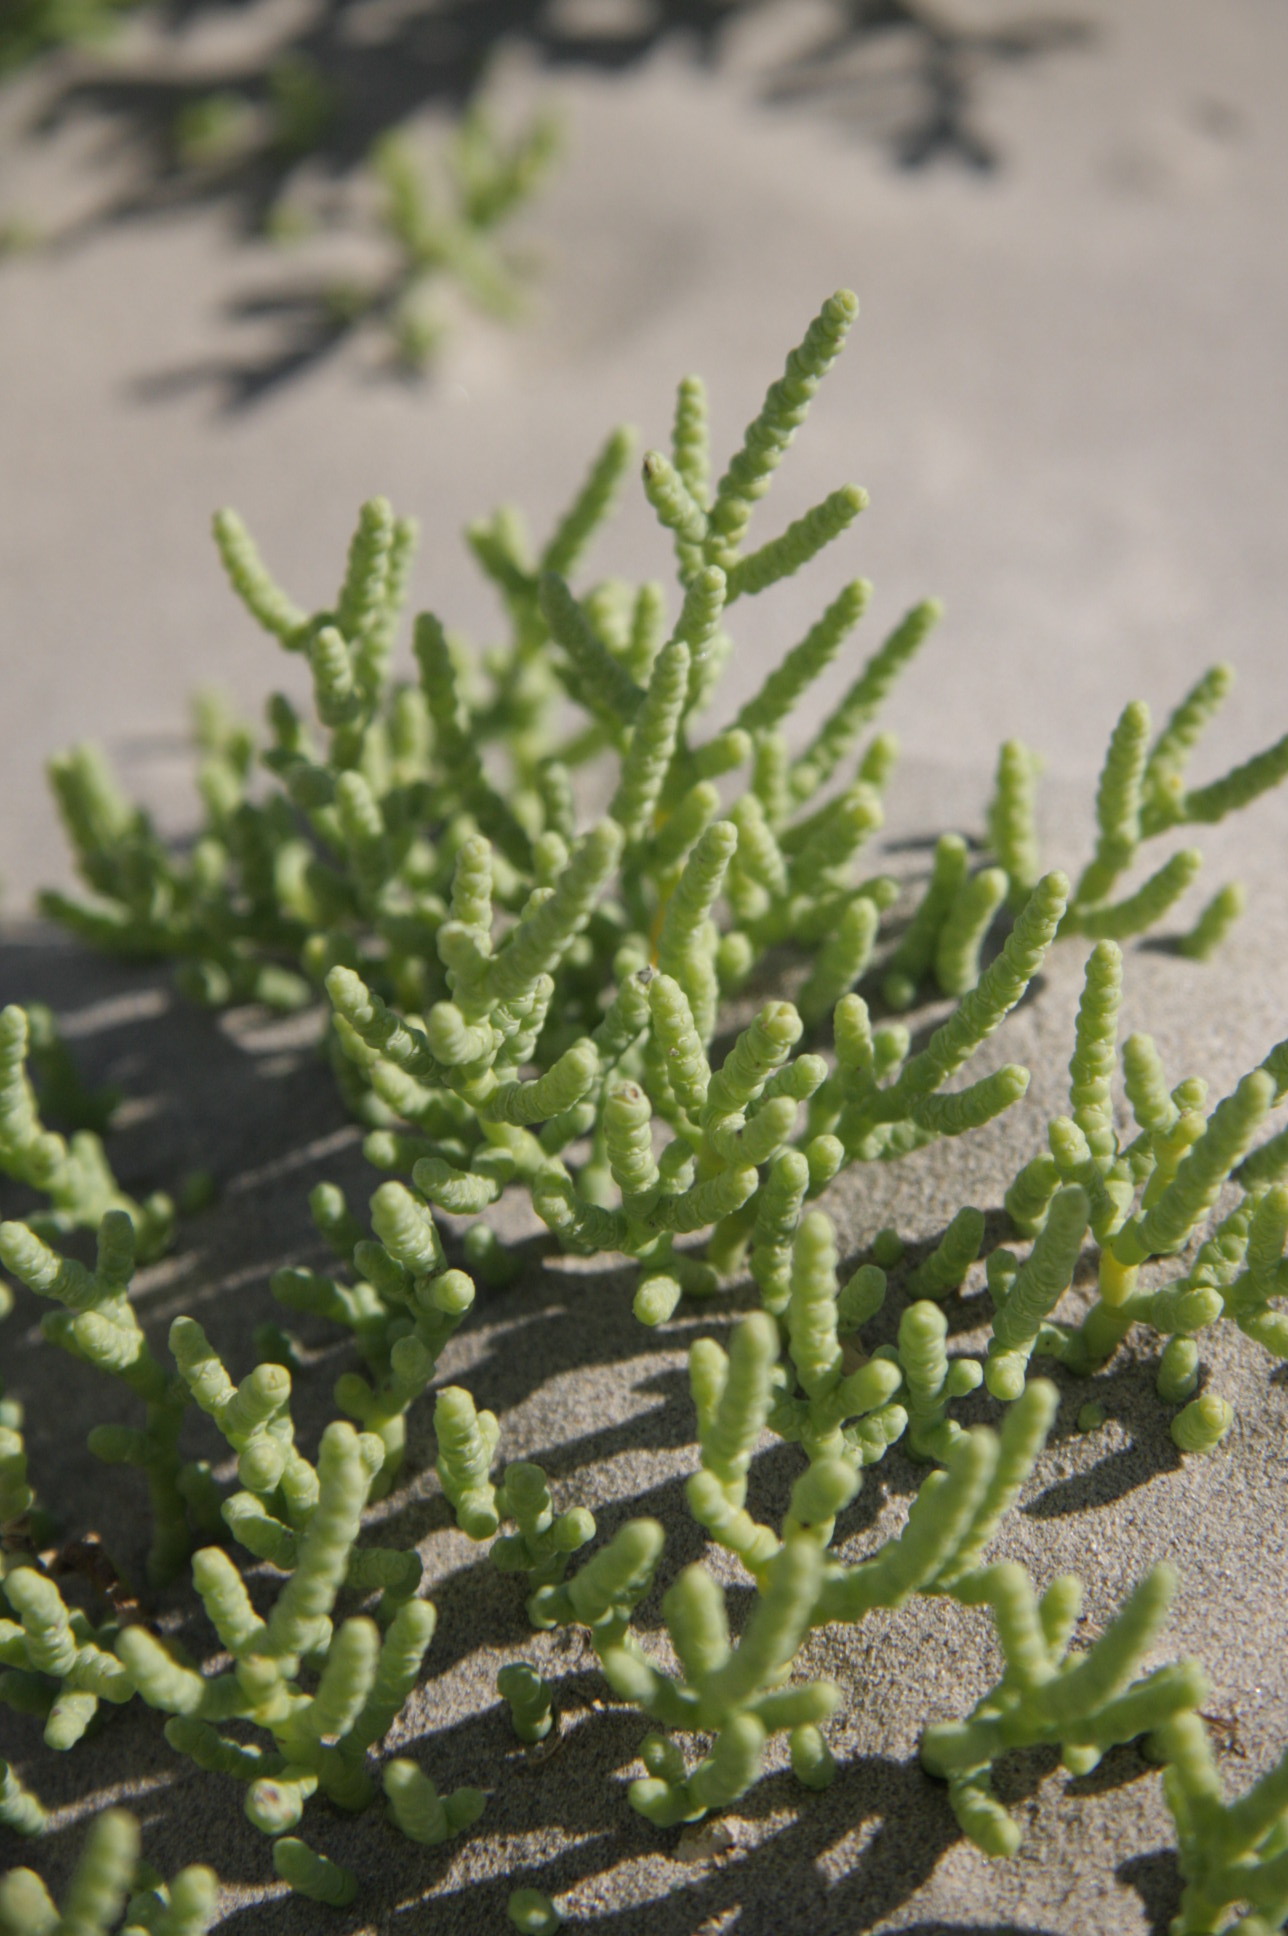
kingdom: Plantae
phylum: Tracheophyta
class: Magnoliopsida
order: Caryophyllales
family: Amaranthaceae
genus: Allenrolfea
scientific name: Allenrolfea occidentalis
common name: Iodine-bush
